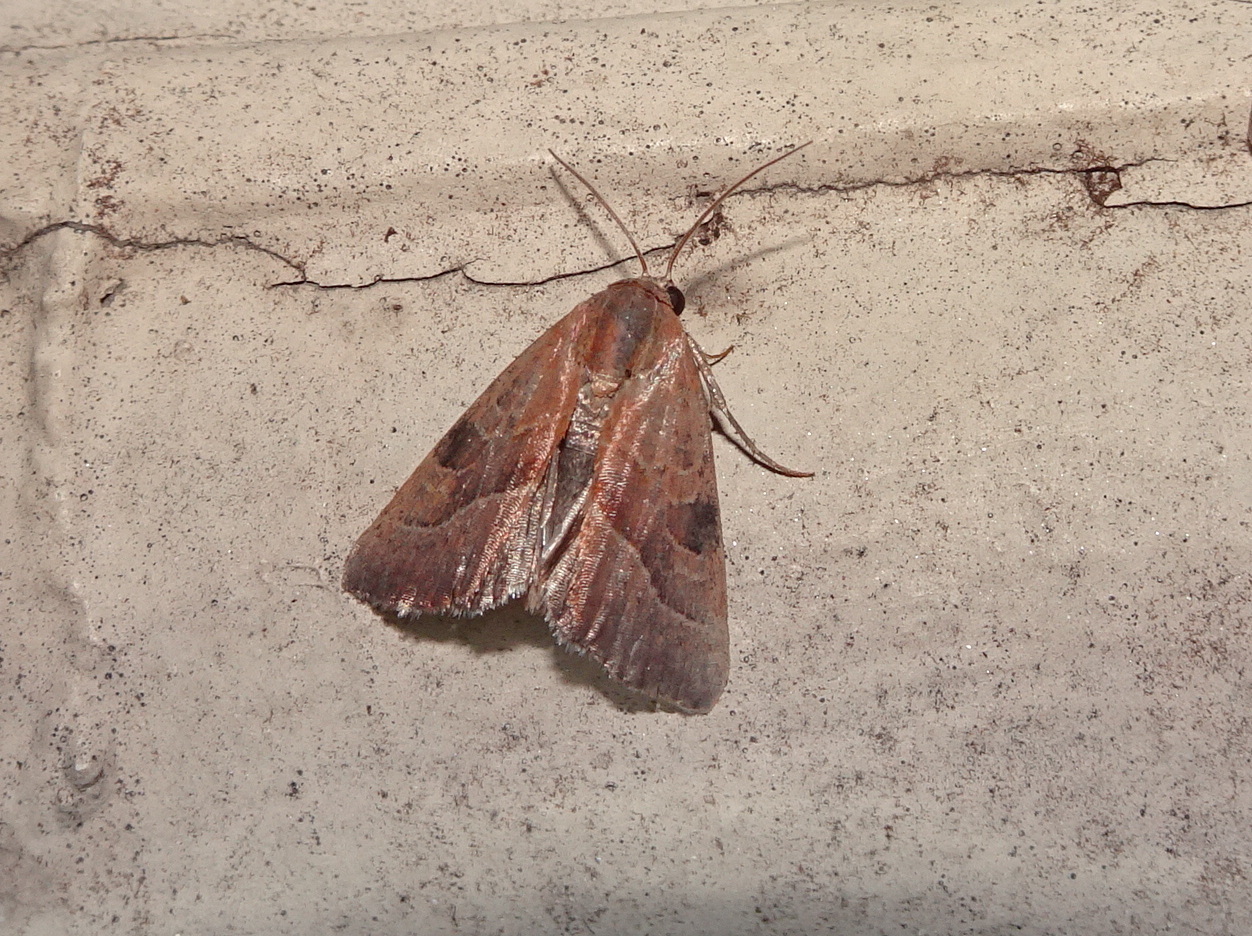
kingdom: Animalia
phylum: Arthropoda
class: Insecta
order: Lepidoptera
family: Noctuidae
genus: Galgula
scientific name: Galgula partita
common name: Wedgeling
